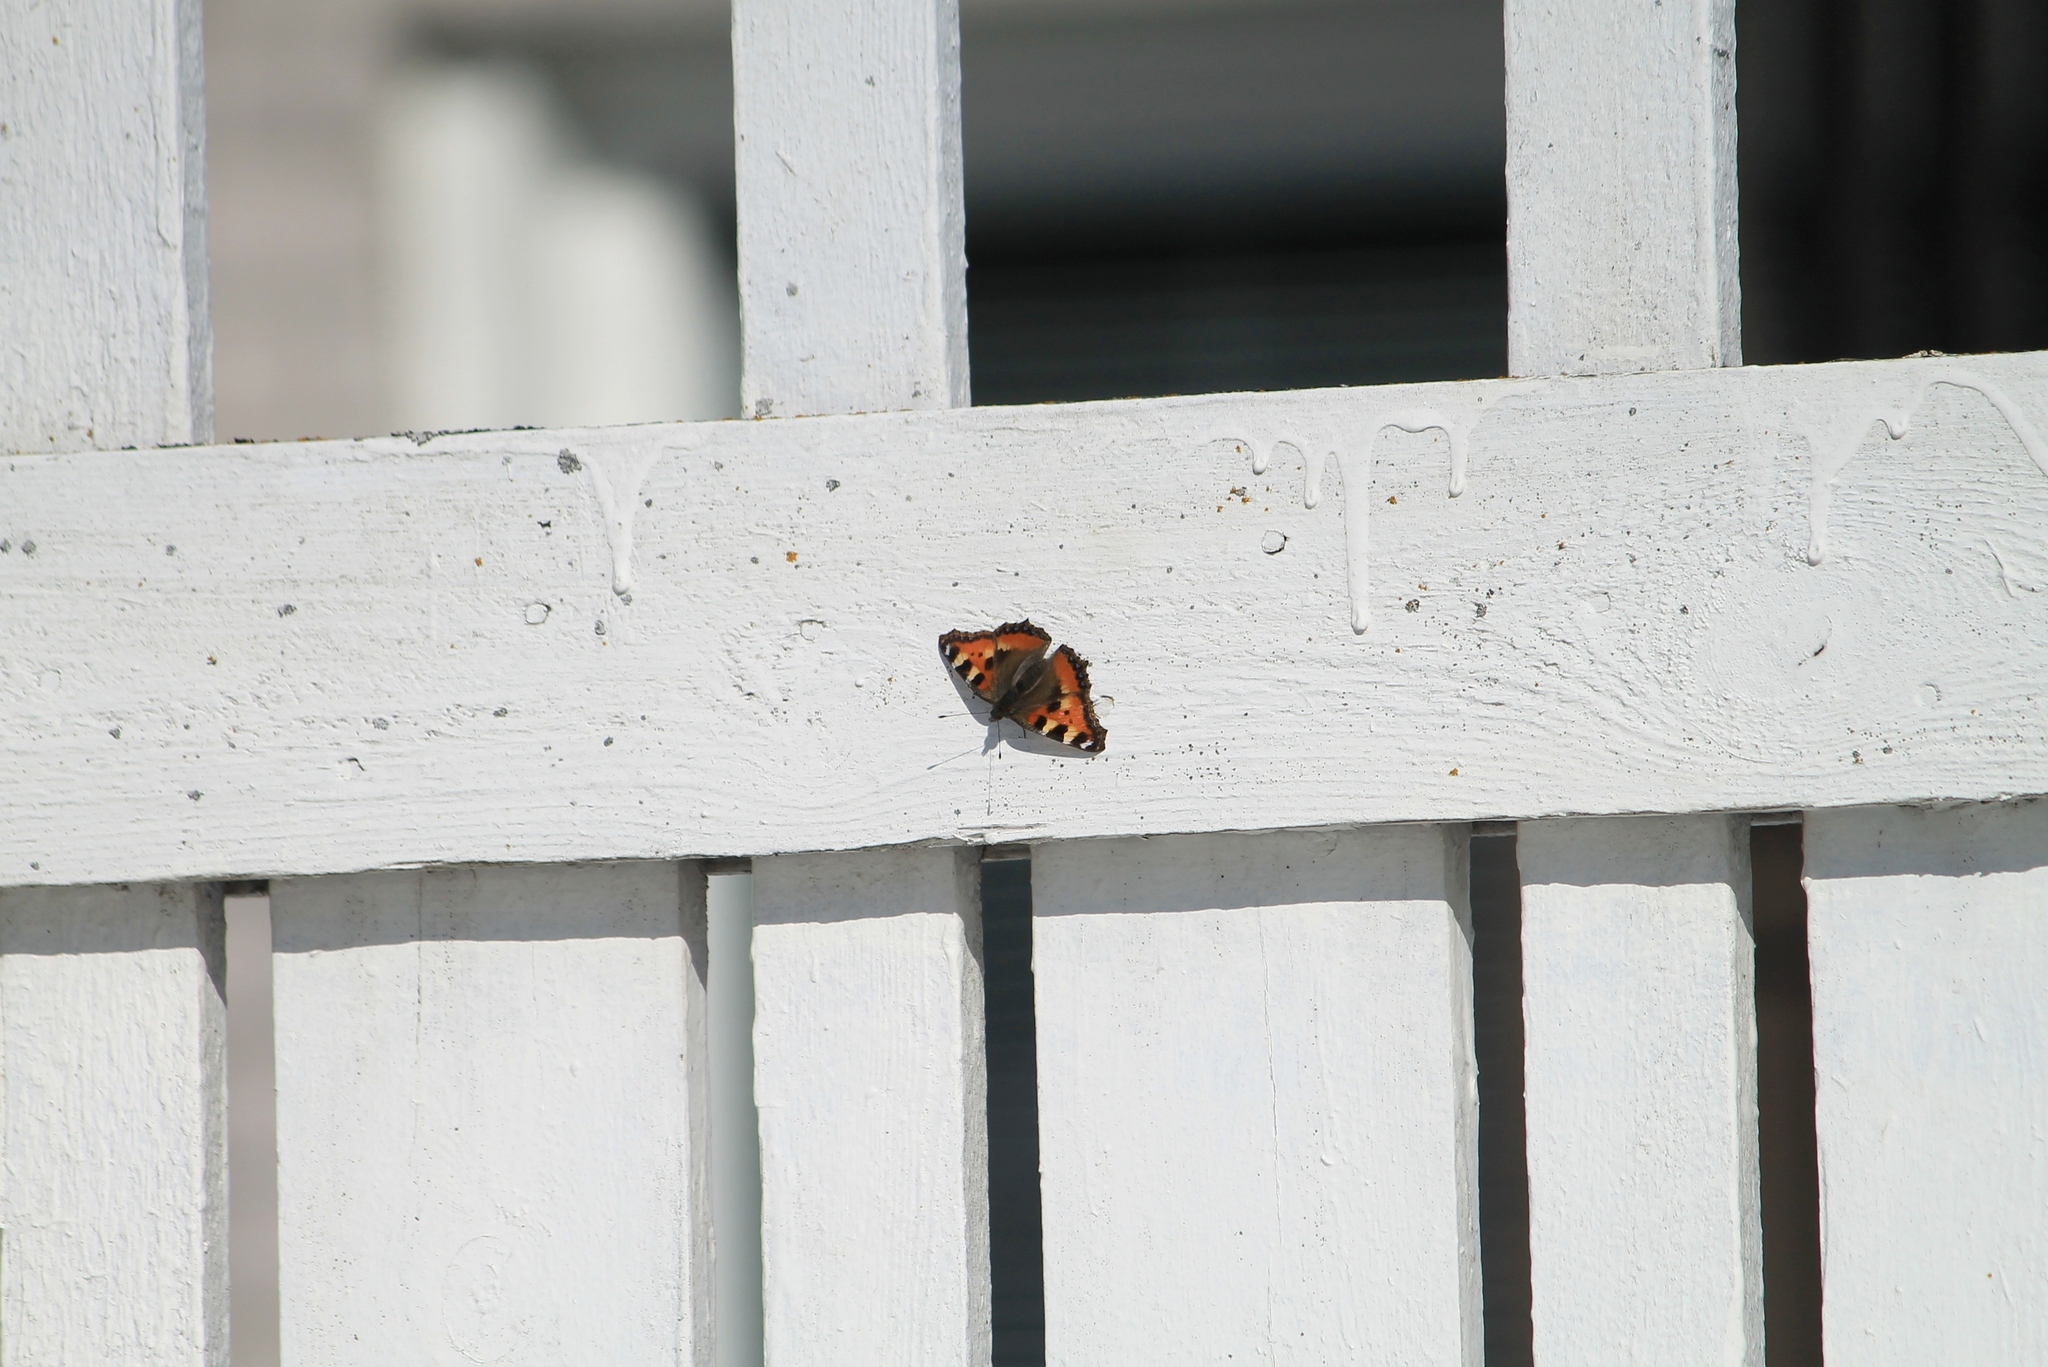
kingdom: Animalia
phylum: Arthropoda
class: Insecta
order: Lepidoptera
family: Nymphalidae
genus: Aglais
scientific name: Aglais urticae
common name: Small tortoiseshell
